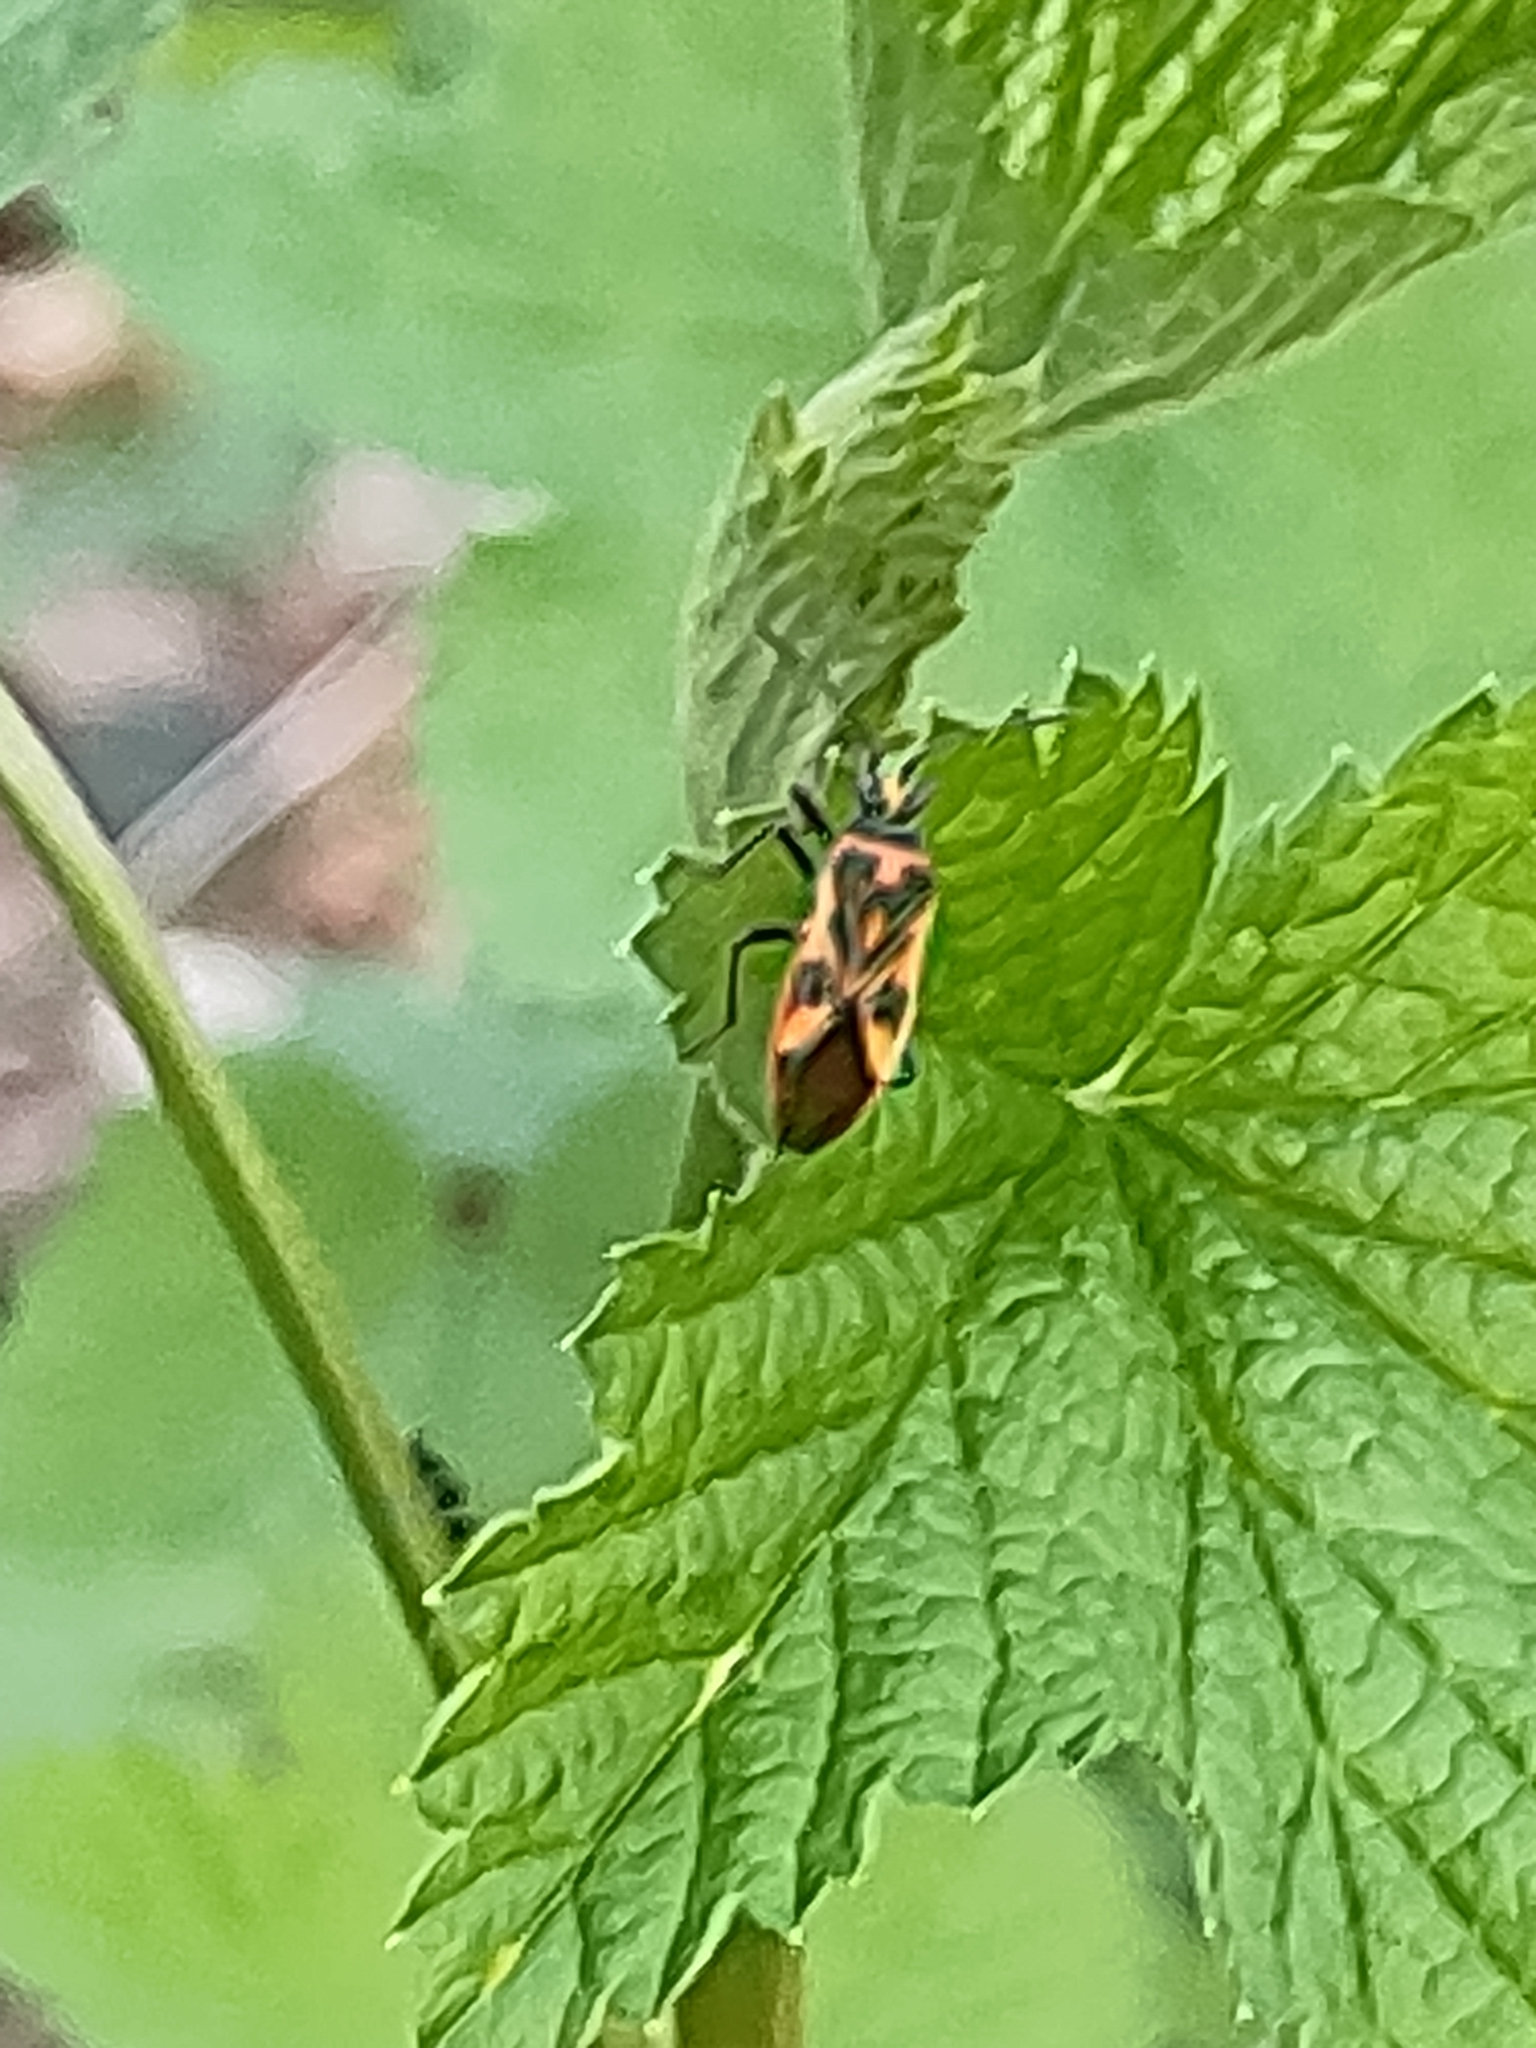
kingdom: Animalia
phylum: Arthropoda
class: Insecta
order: Hemiptera
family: Rhopalidae
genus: Corizus
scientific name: Corizus hyoscyami
